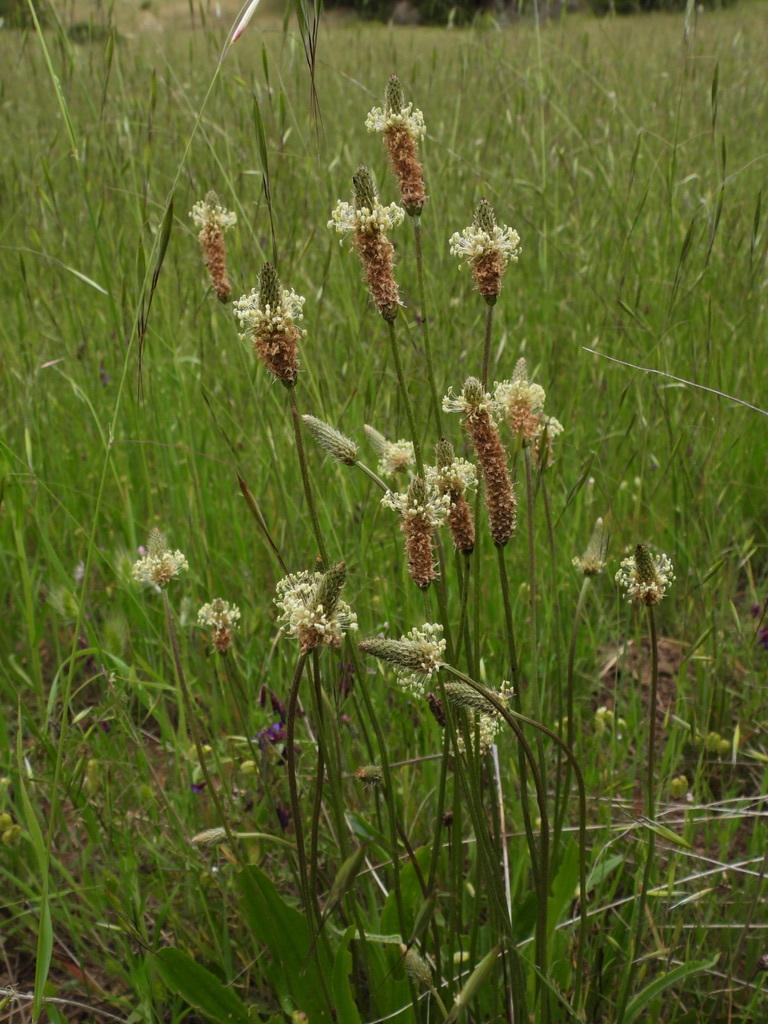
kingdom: Plantae
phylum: Tracheophyta
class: Magnoliopsida
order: Lamiales
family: Plantaginaceae
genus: Plantago
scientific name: Plantago lanceolata
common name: Ribwort plantain
